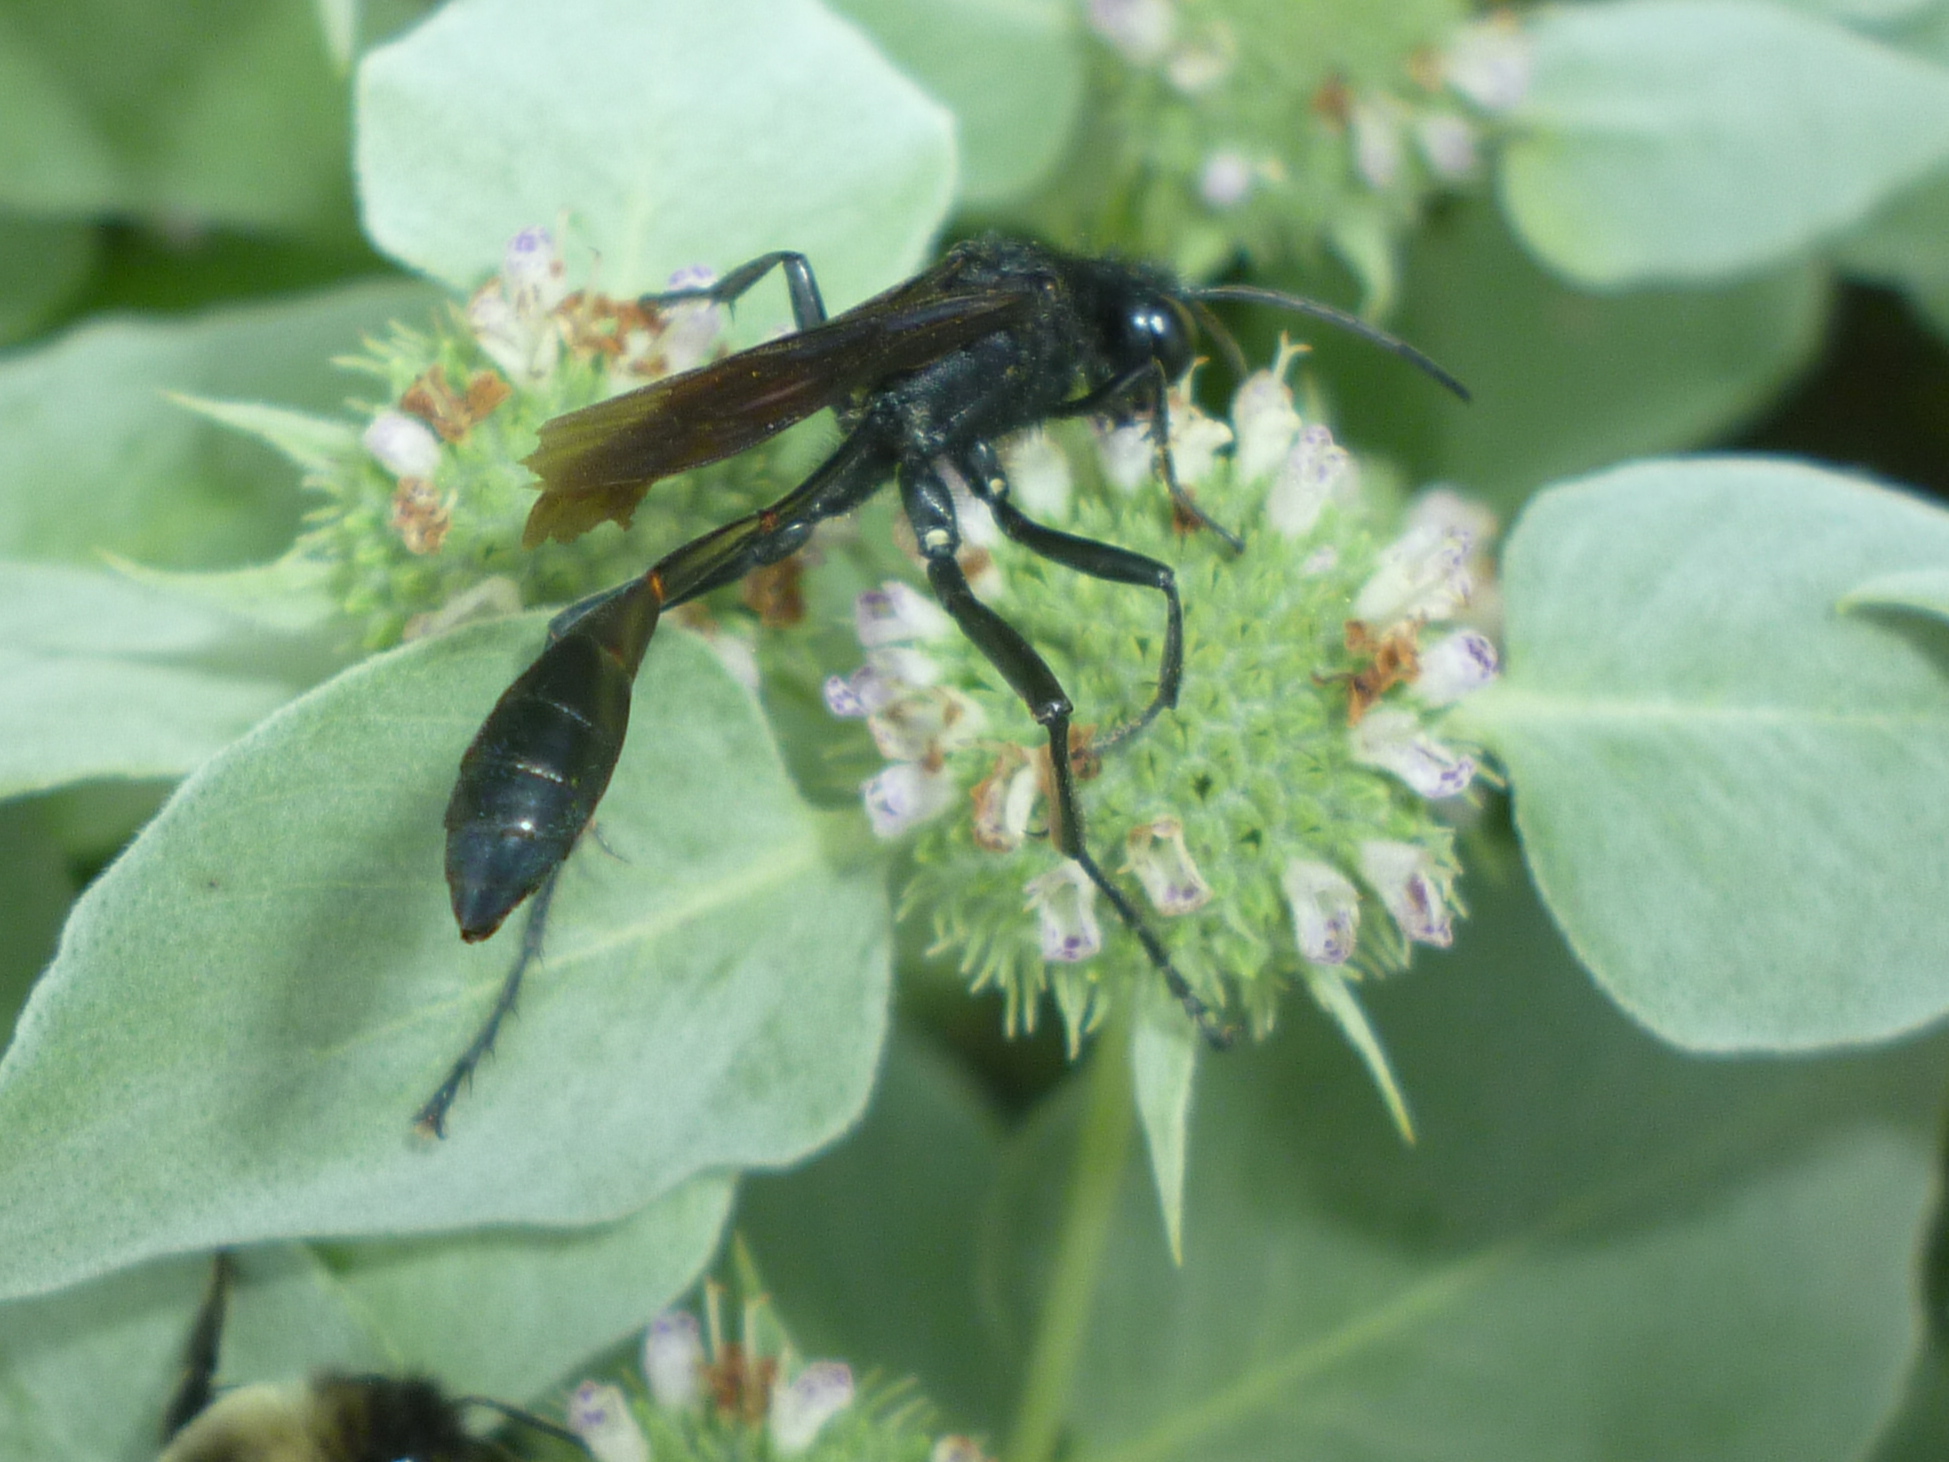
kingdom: Animalia
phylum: Arthropoda
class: Insecta
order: Hymenoptera
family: Sphecidae
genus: Ammophila
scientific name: Ammophila nigricans
